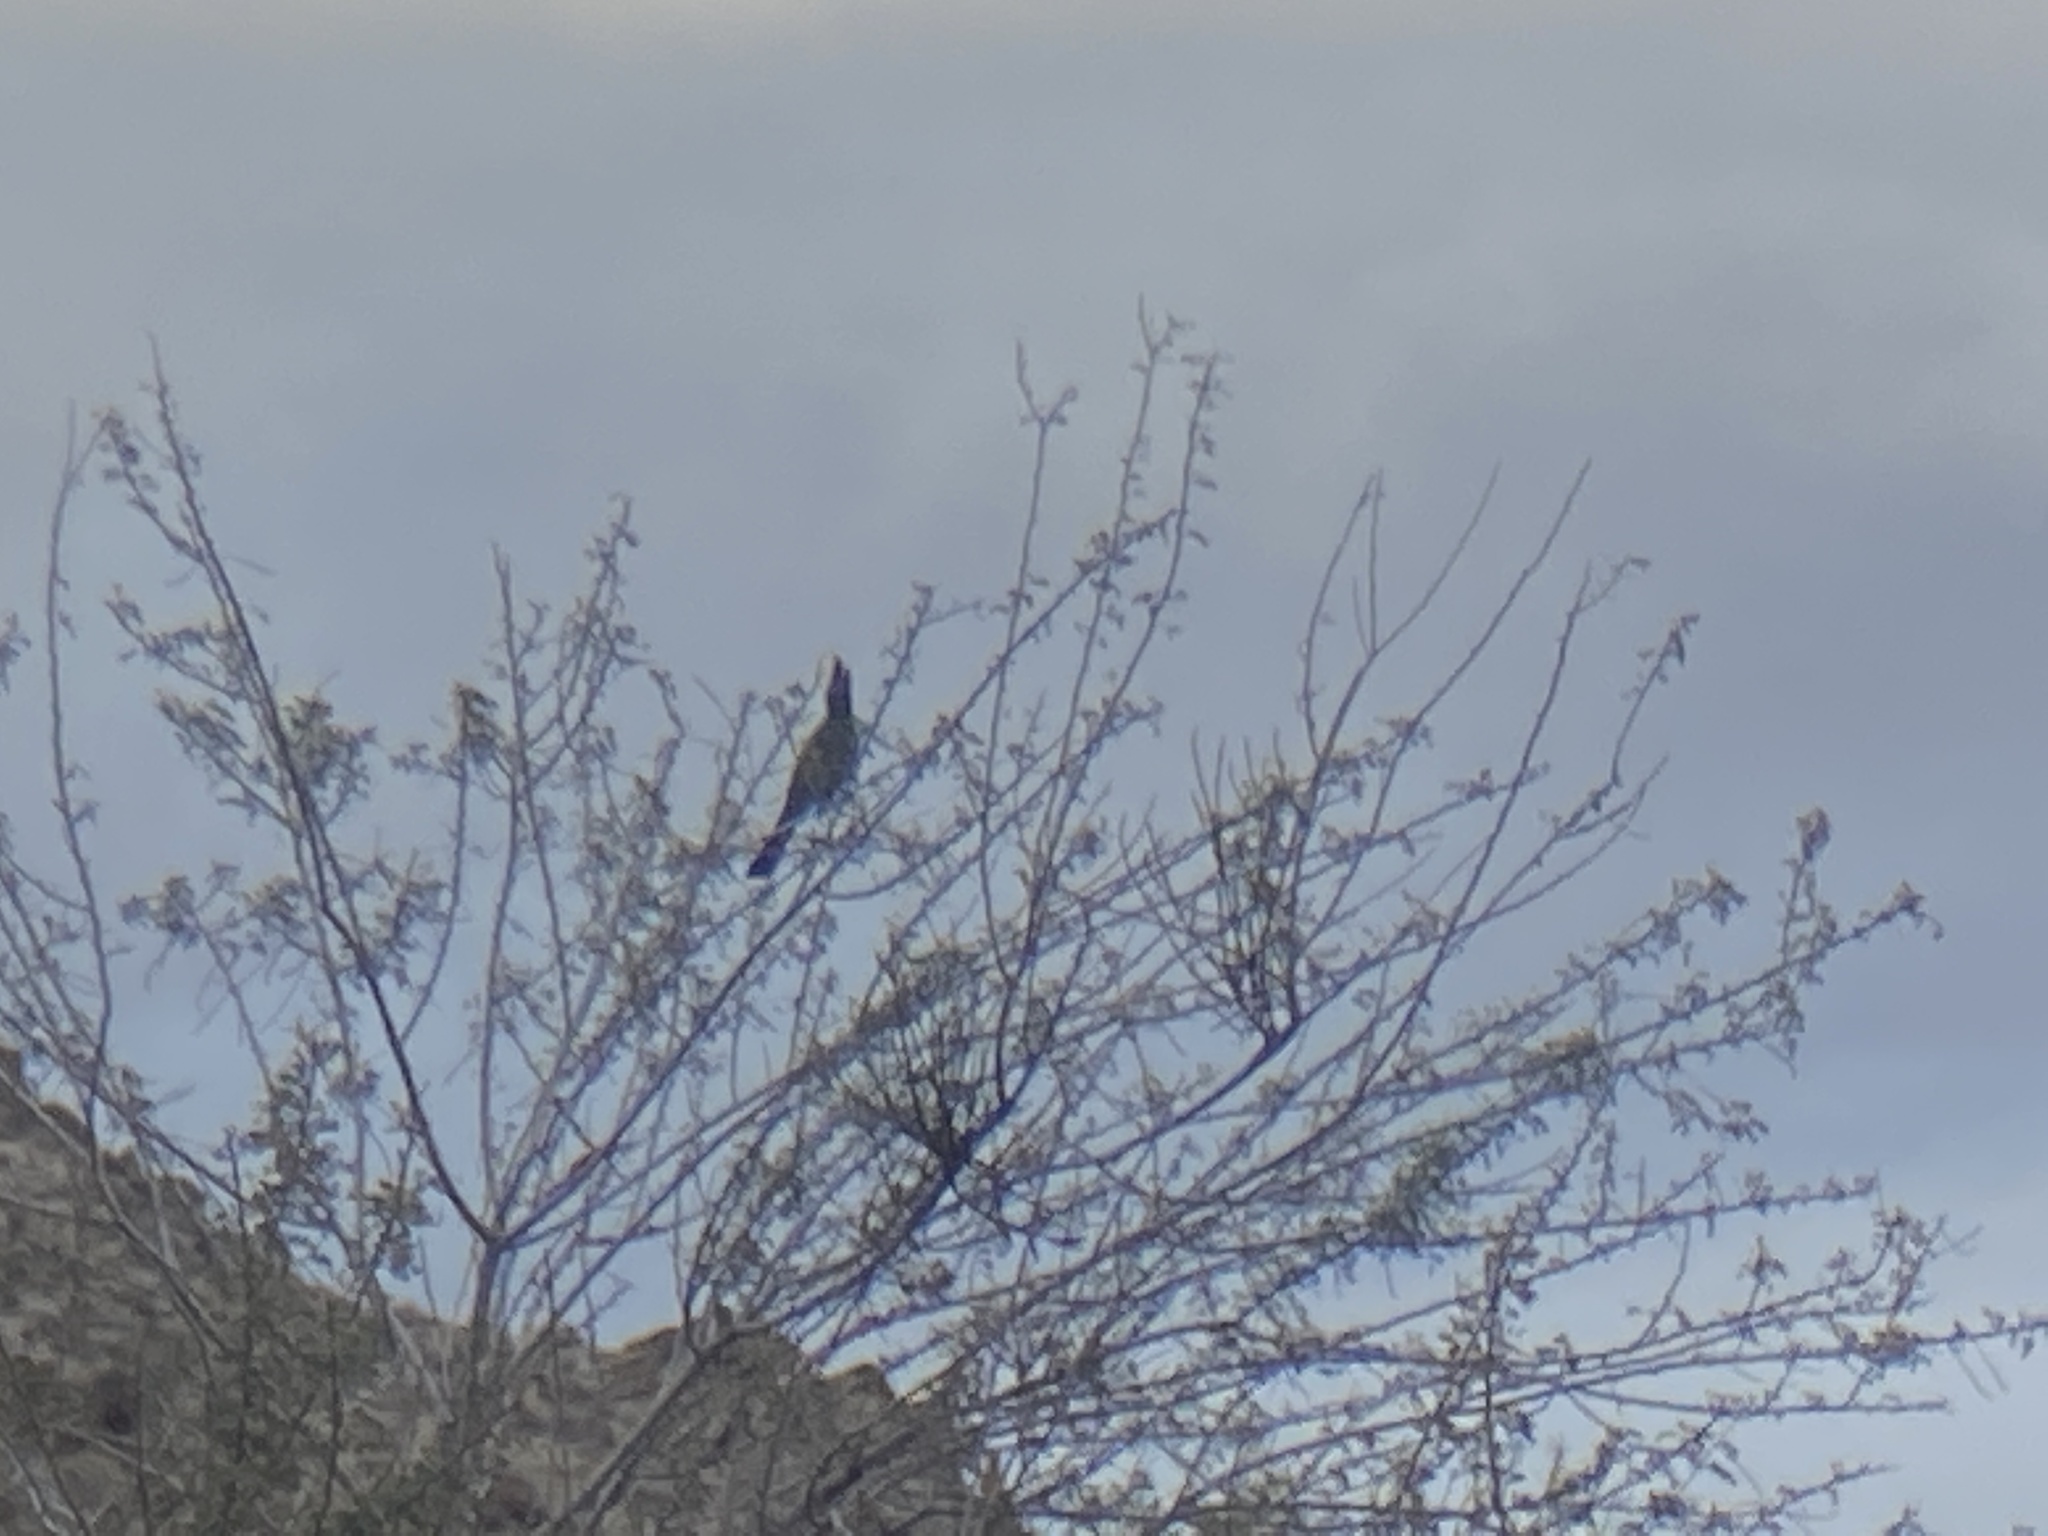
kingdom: Animalia
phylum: Chordata
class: Aves
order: Passeriformes
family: Ptilogonatidae
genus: Phainopepla
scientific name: Phainopepla nitens
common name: Phainopepla
